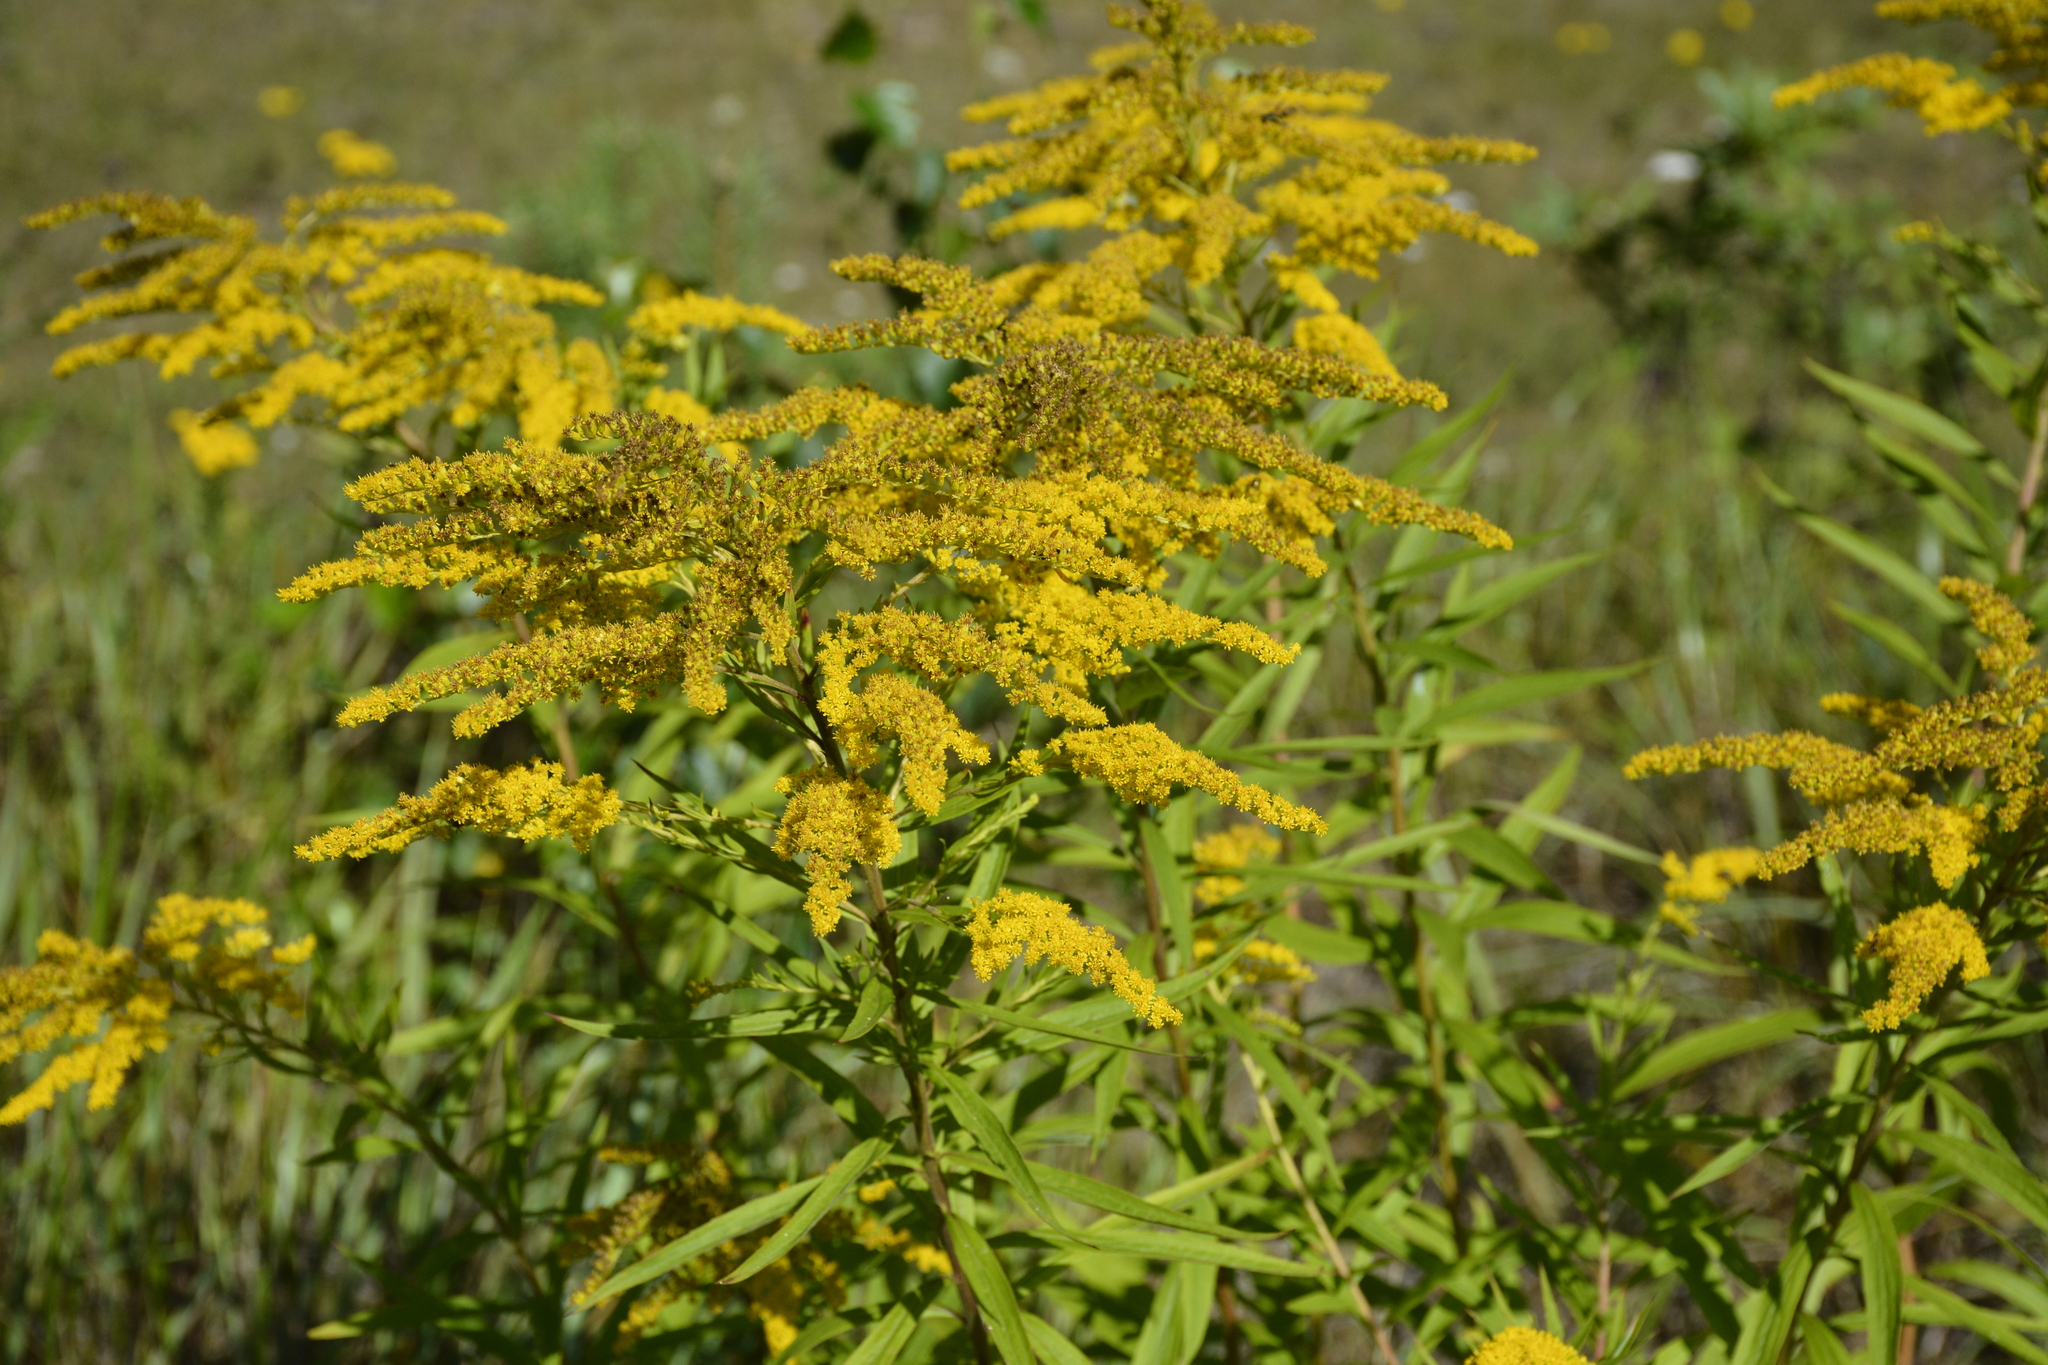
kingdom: Plantae
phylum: Tracheophyta
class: Magnoliopsida
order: Asterales
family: Asteraceae
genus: Solidago
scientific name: Solidago canadensis
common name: Canada goldenrod
